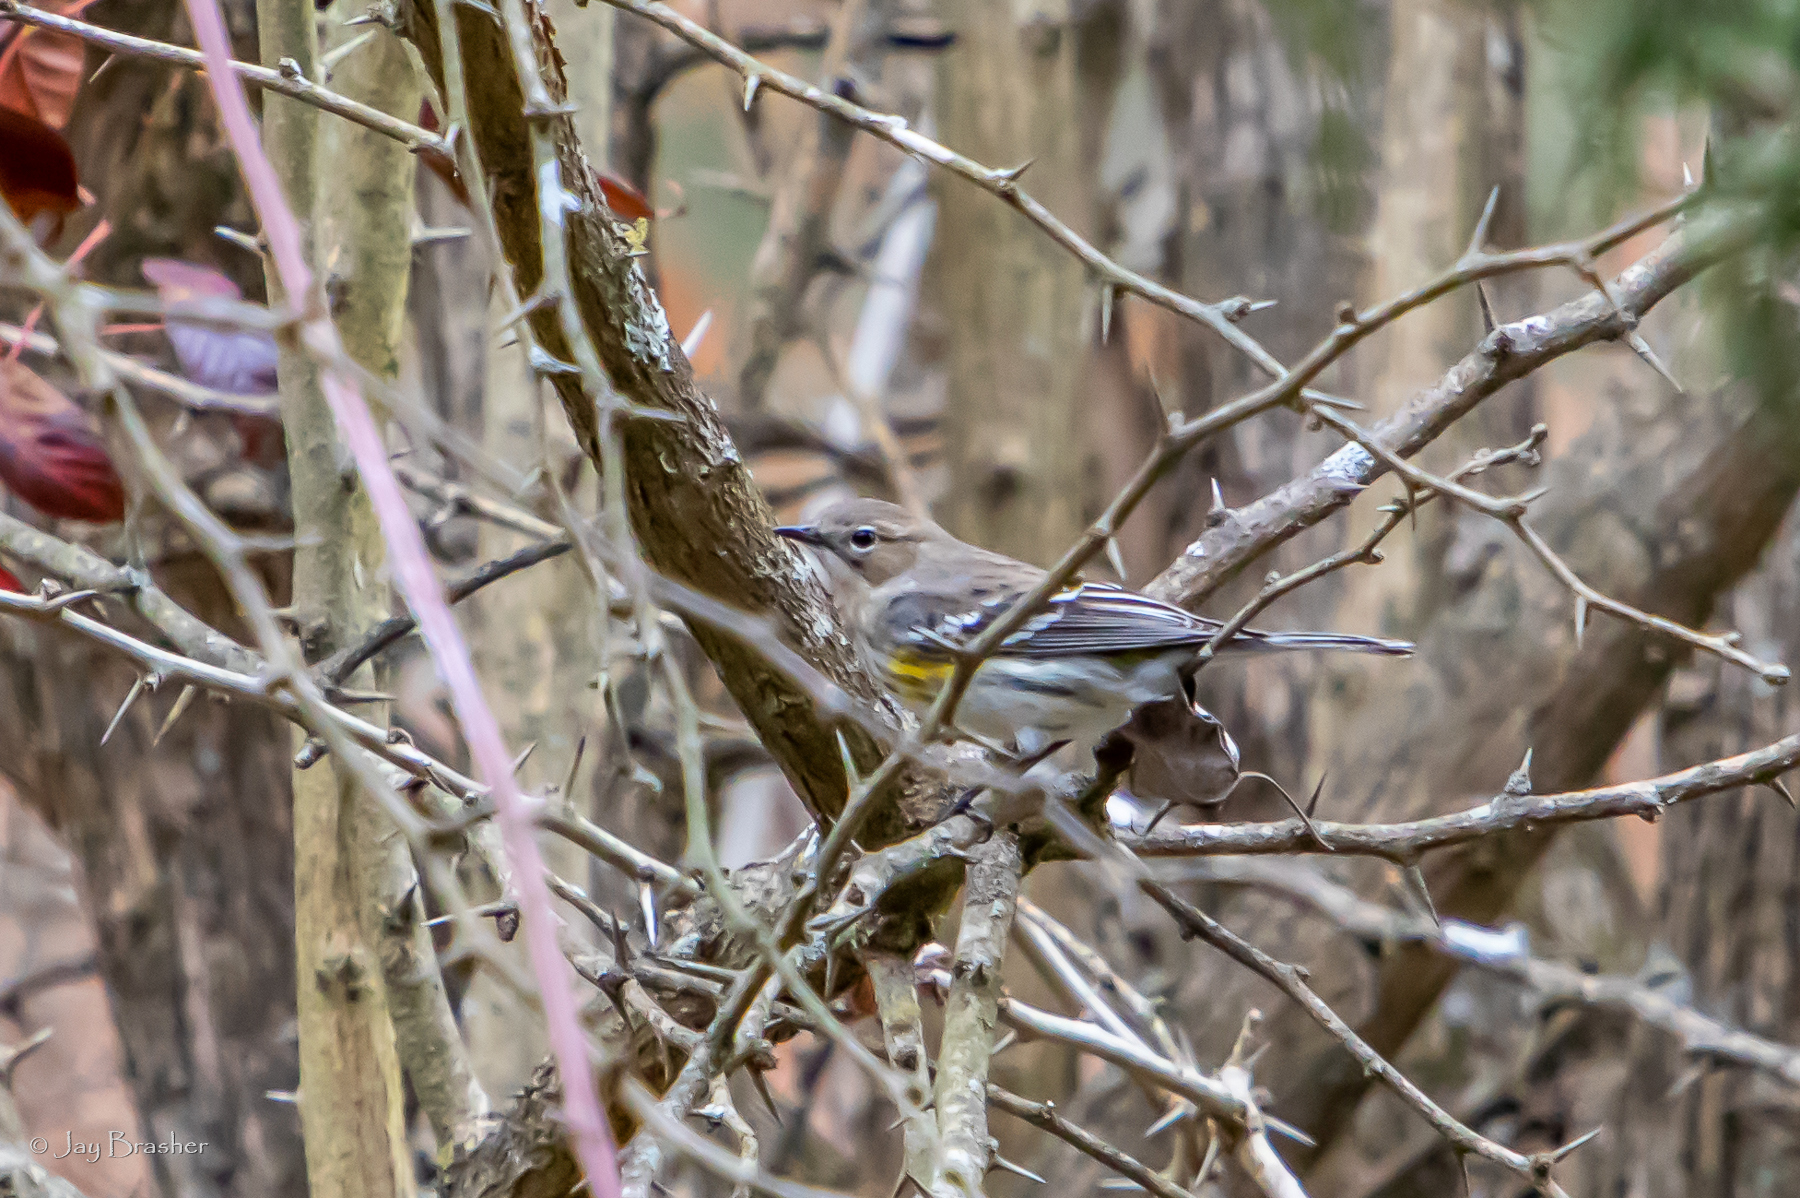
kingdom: Animalia
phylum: Chordata
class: Aves
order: Passeriformes
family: Parulidae
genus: Setophaga
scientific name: Setophaga coronata
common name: Myrtle warbler
